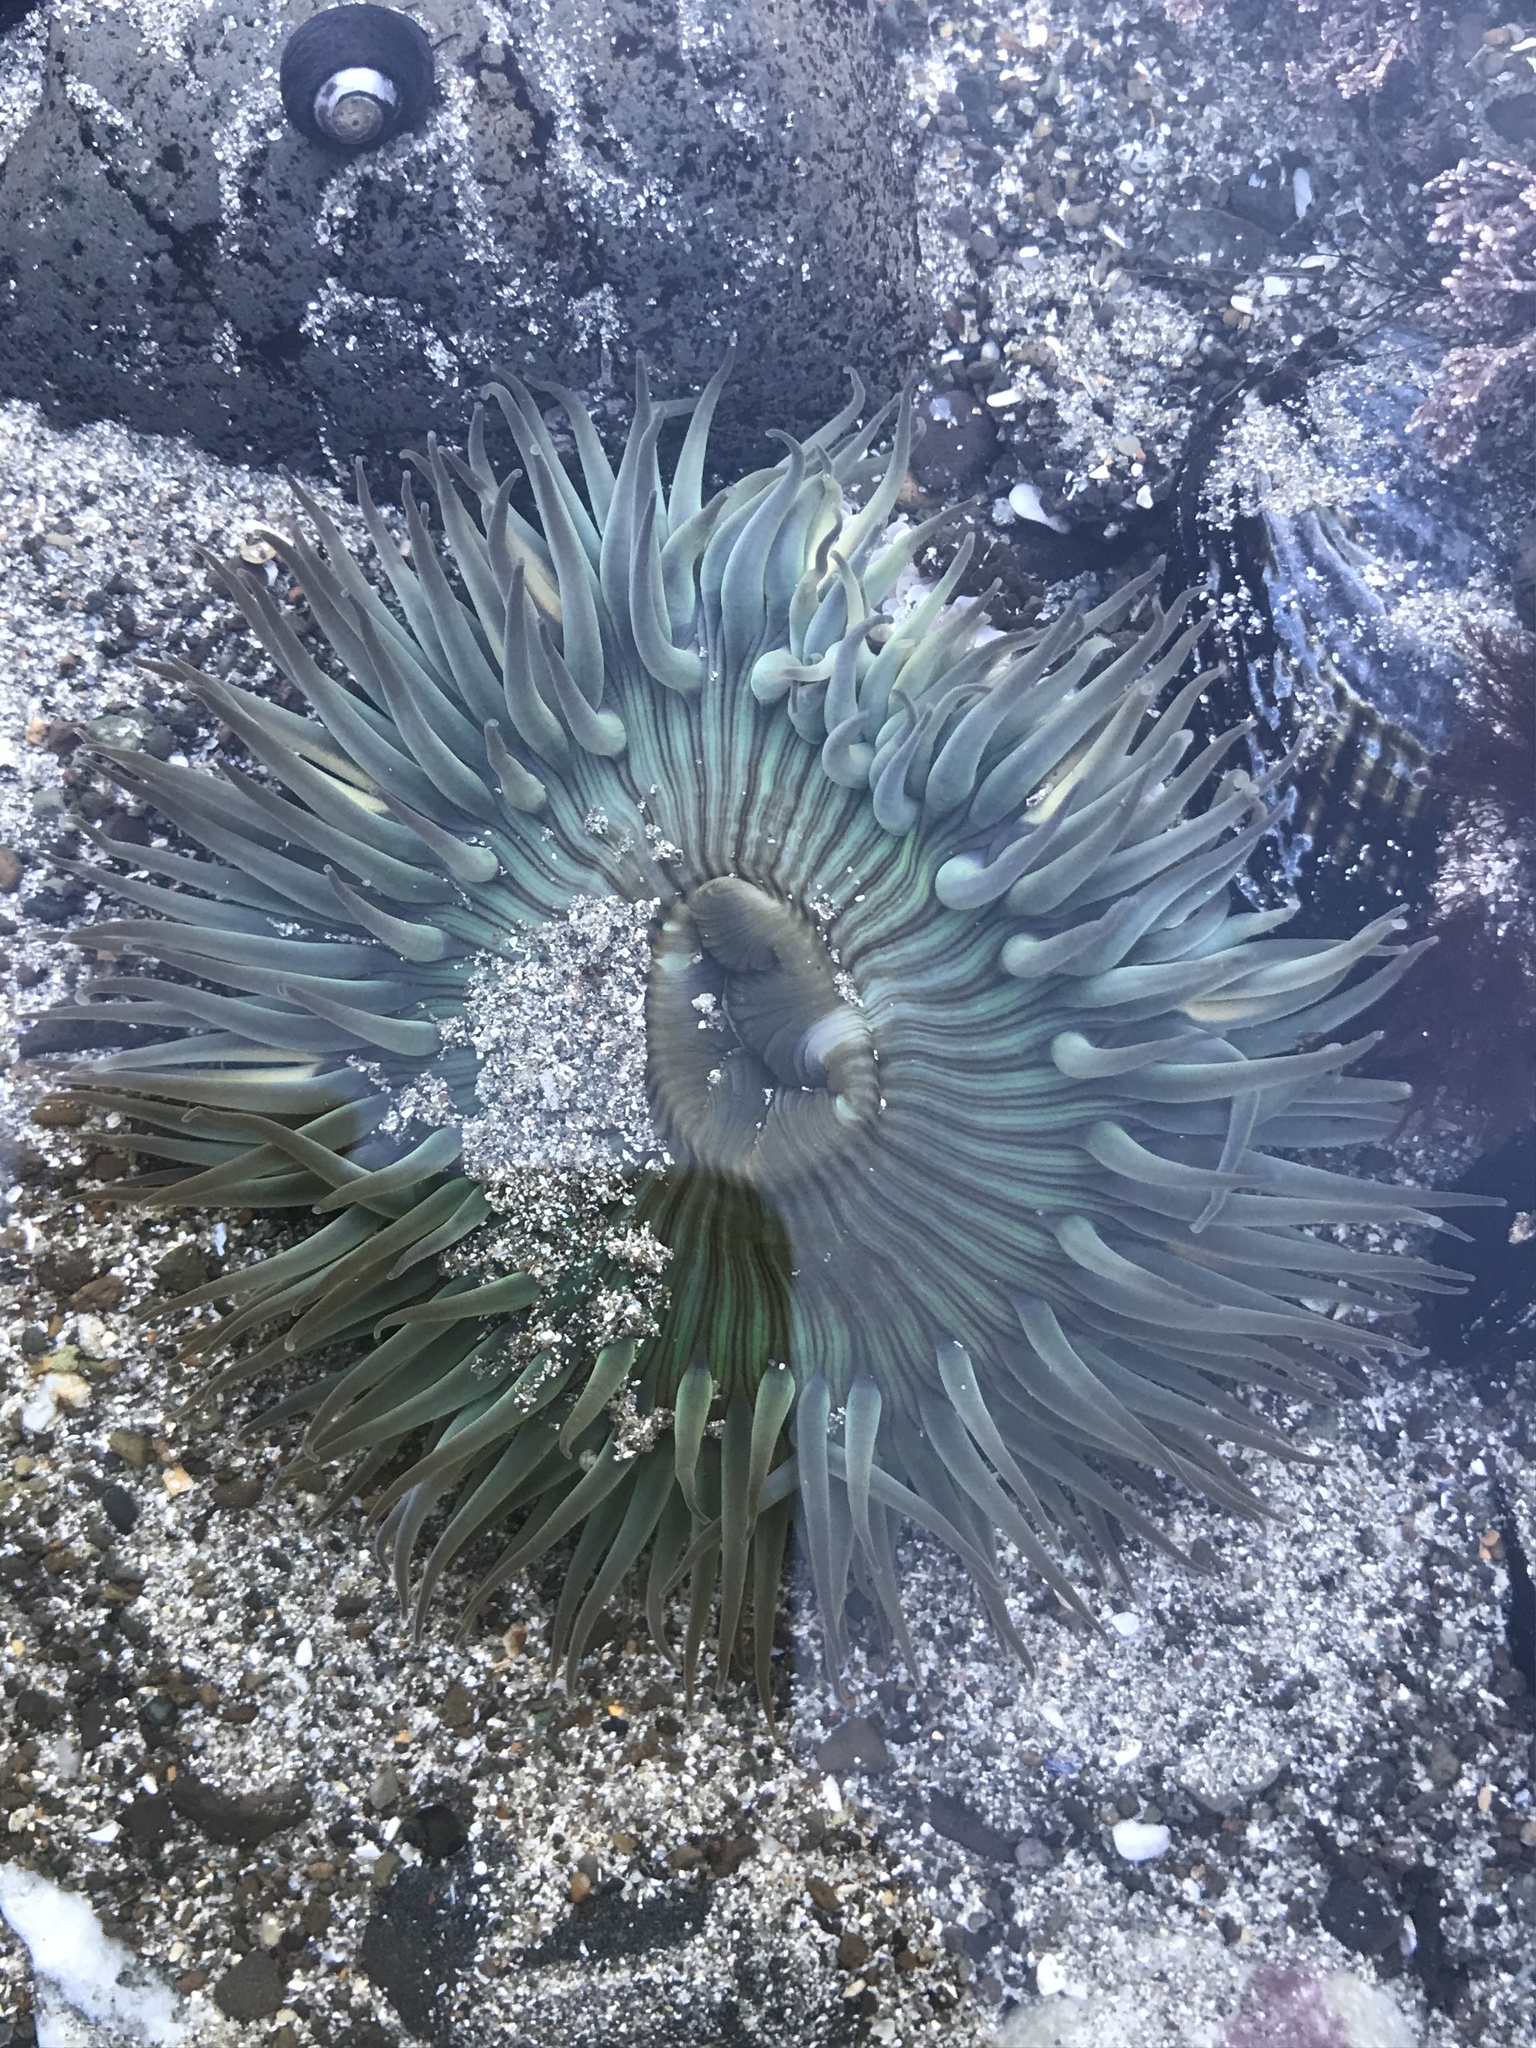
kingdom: Animalia
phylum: Cnidaria
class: Anthozoa
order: Actiniaria
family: Actiniidae
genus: Anthopleura
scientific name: Anthopleura sola
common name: Sun anemone
